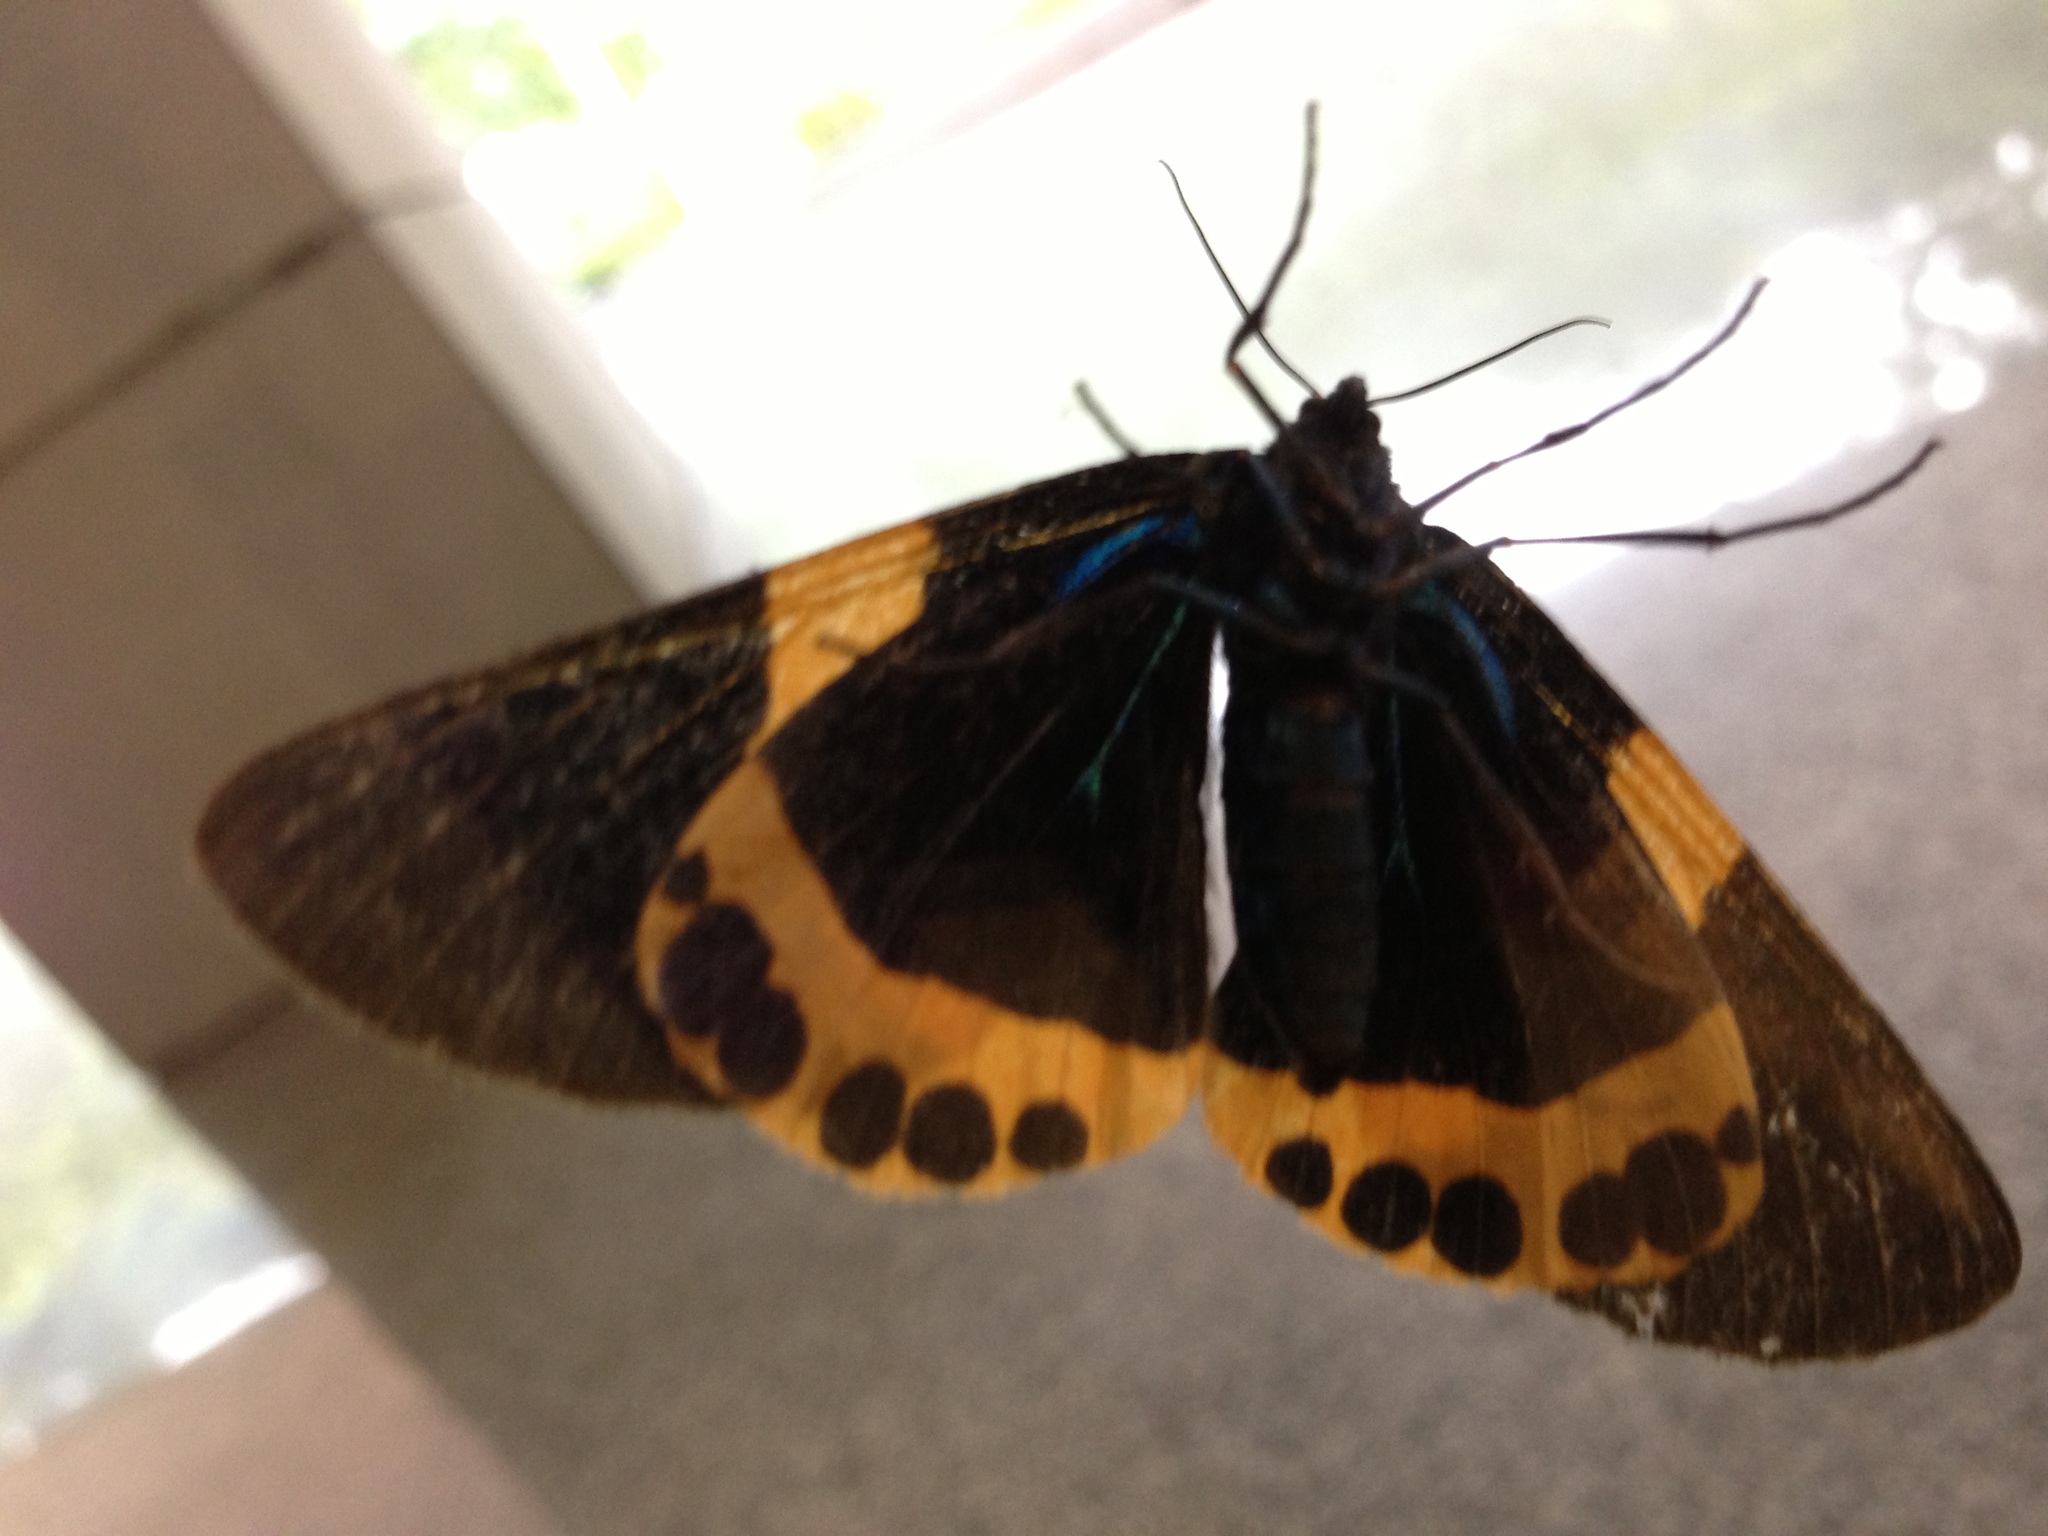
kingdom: Animalia
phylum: Arthropoda
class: Insecta
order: Lepidoptera
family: Geometridae
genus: Milionia
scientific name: Milionia basalis
